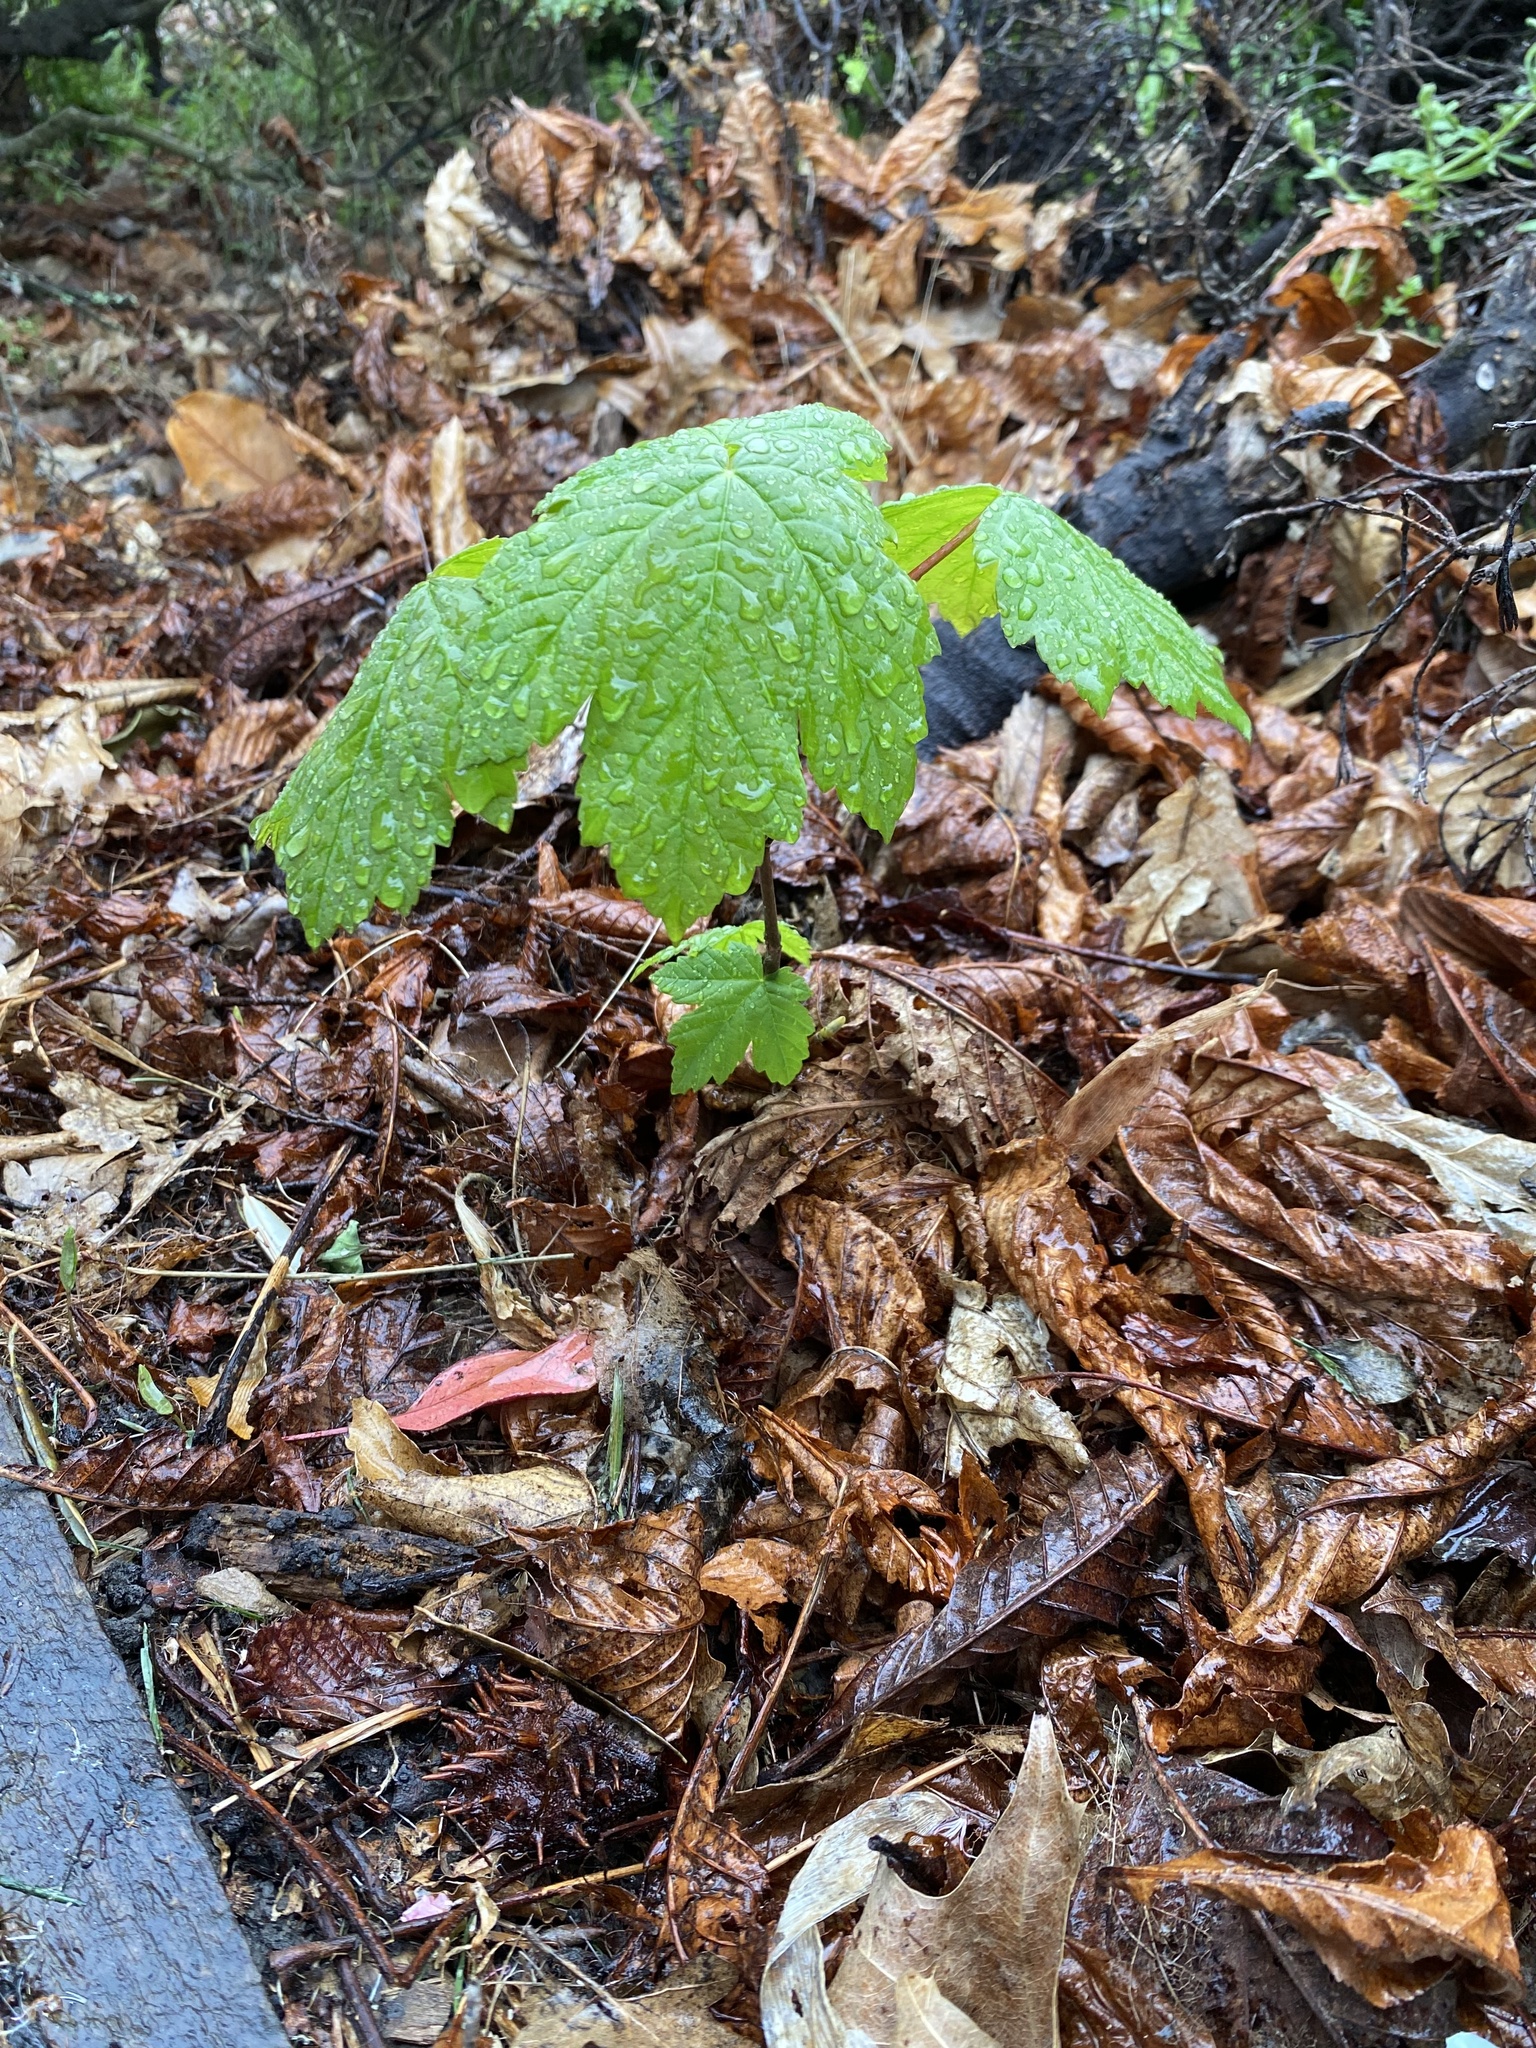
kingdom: Plantae
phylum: Tracheophyta
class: Magnoliopsida
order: Sapindales
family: Sapindaceae
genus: Acer
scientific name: Acer pseudoplatanus
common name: Sycamore
